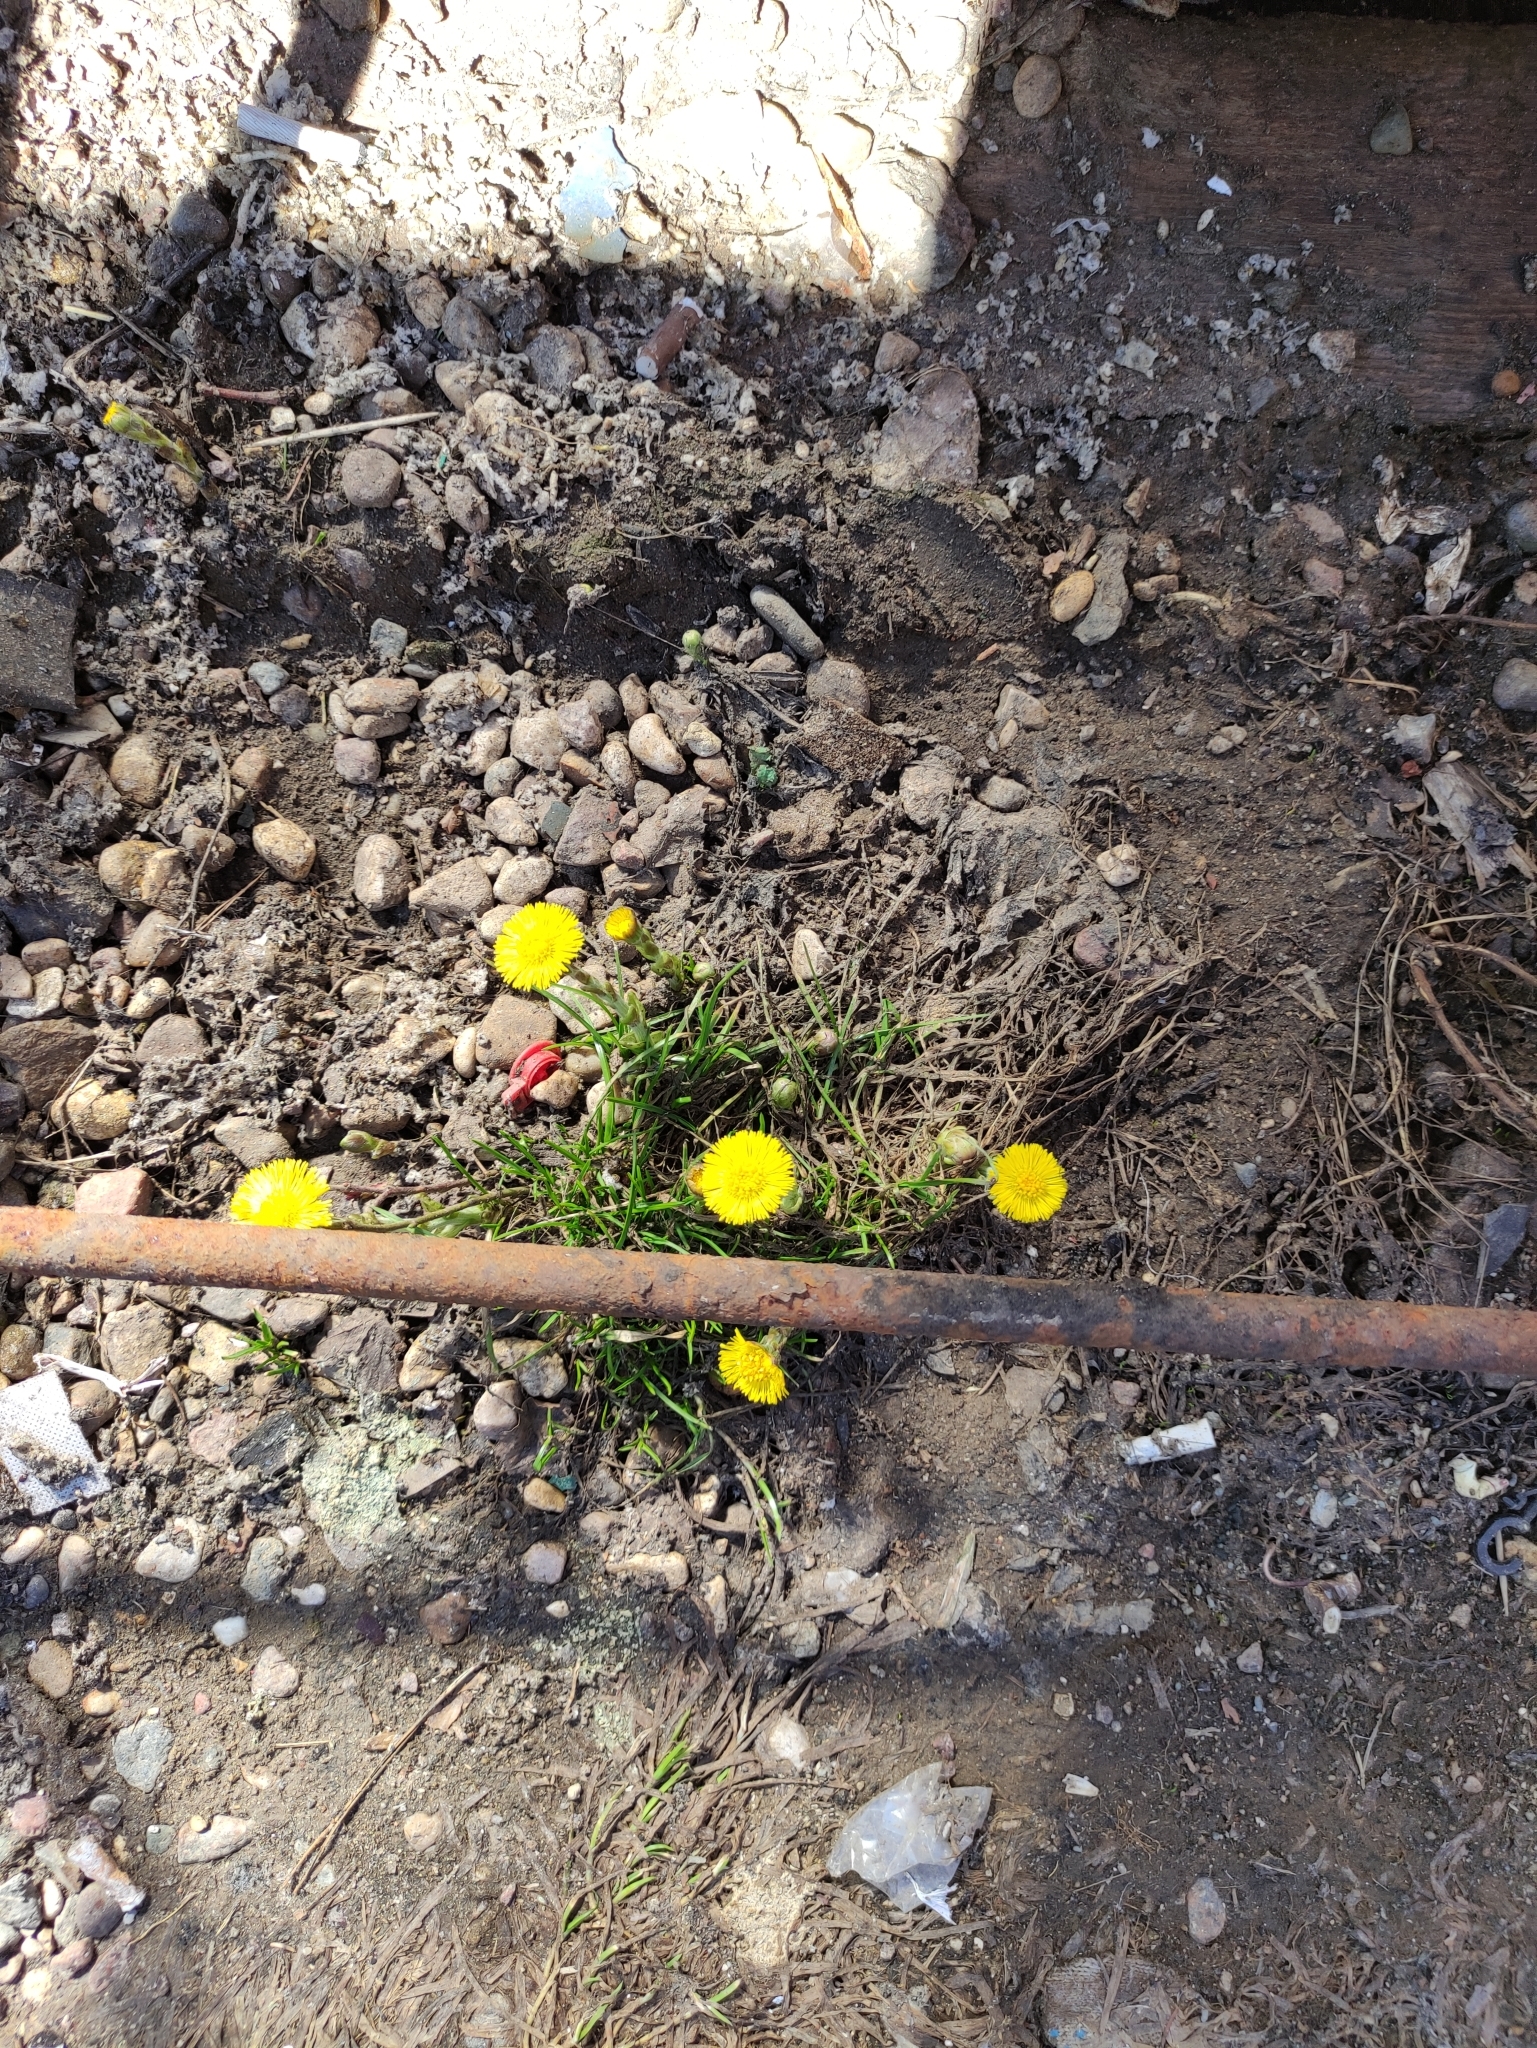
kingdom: Plantae
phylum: Tracheophyta
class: Magnoliopsida
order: Asterales
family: Asteraceae
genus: Tussilago
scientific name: Tussilago farfara
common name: Coltsfoot
